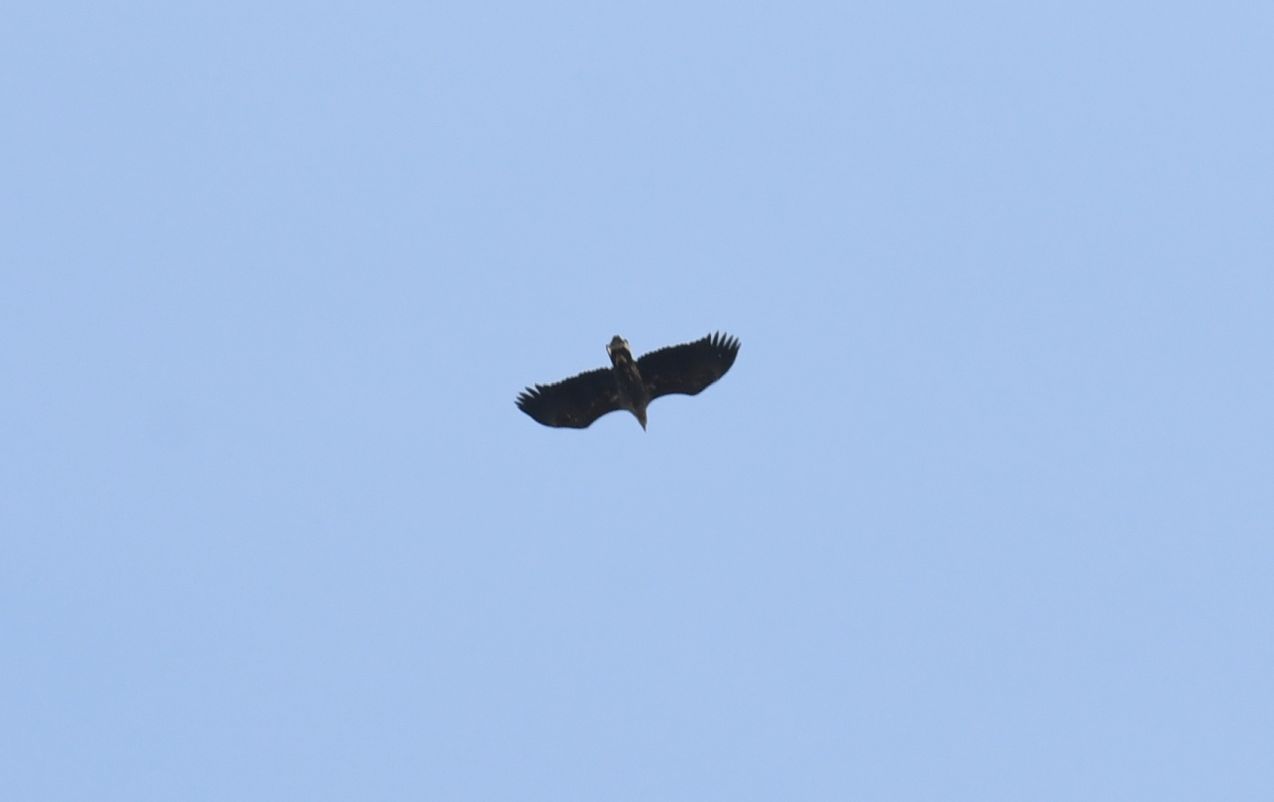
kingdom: Animalia
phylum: Chordata
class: Aves
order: Accipitriformes
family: Accipitridae
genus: Haliaeetus
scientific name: Haliaeetus albicilla
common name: White-tailed eagle
